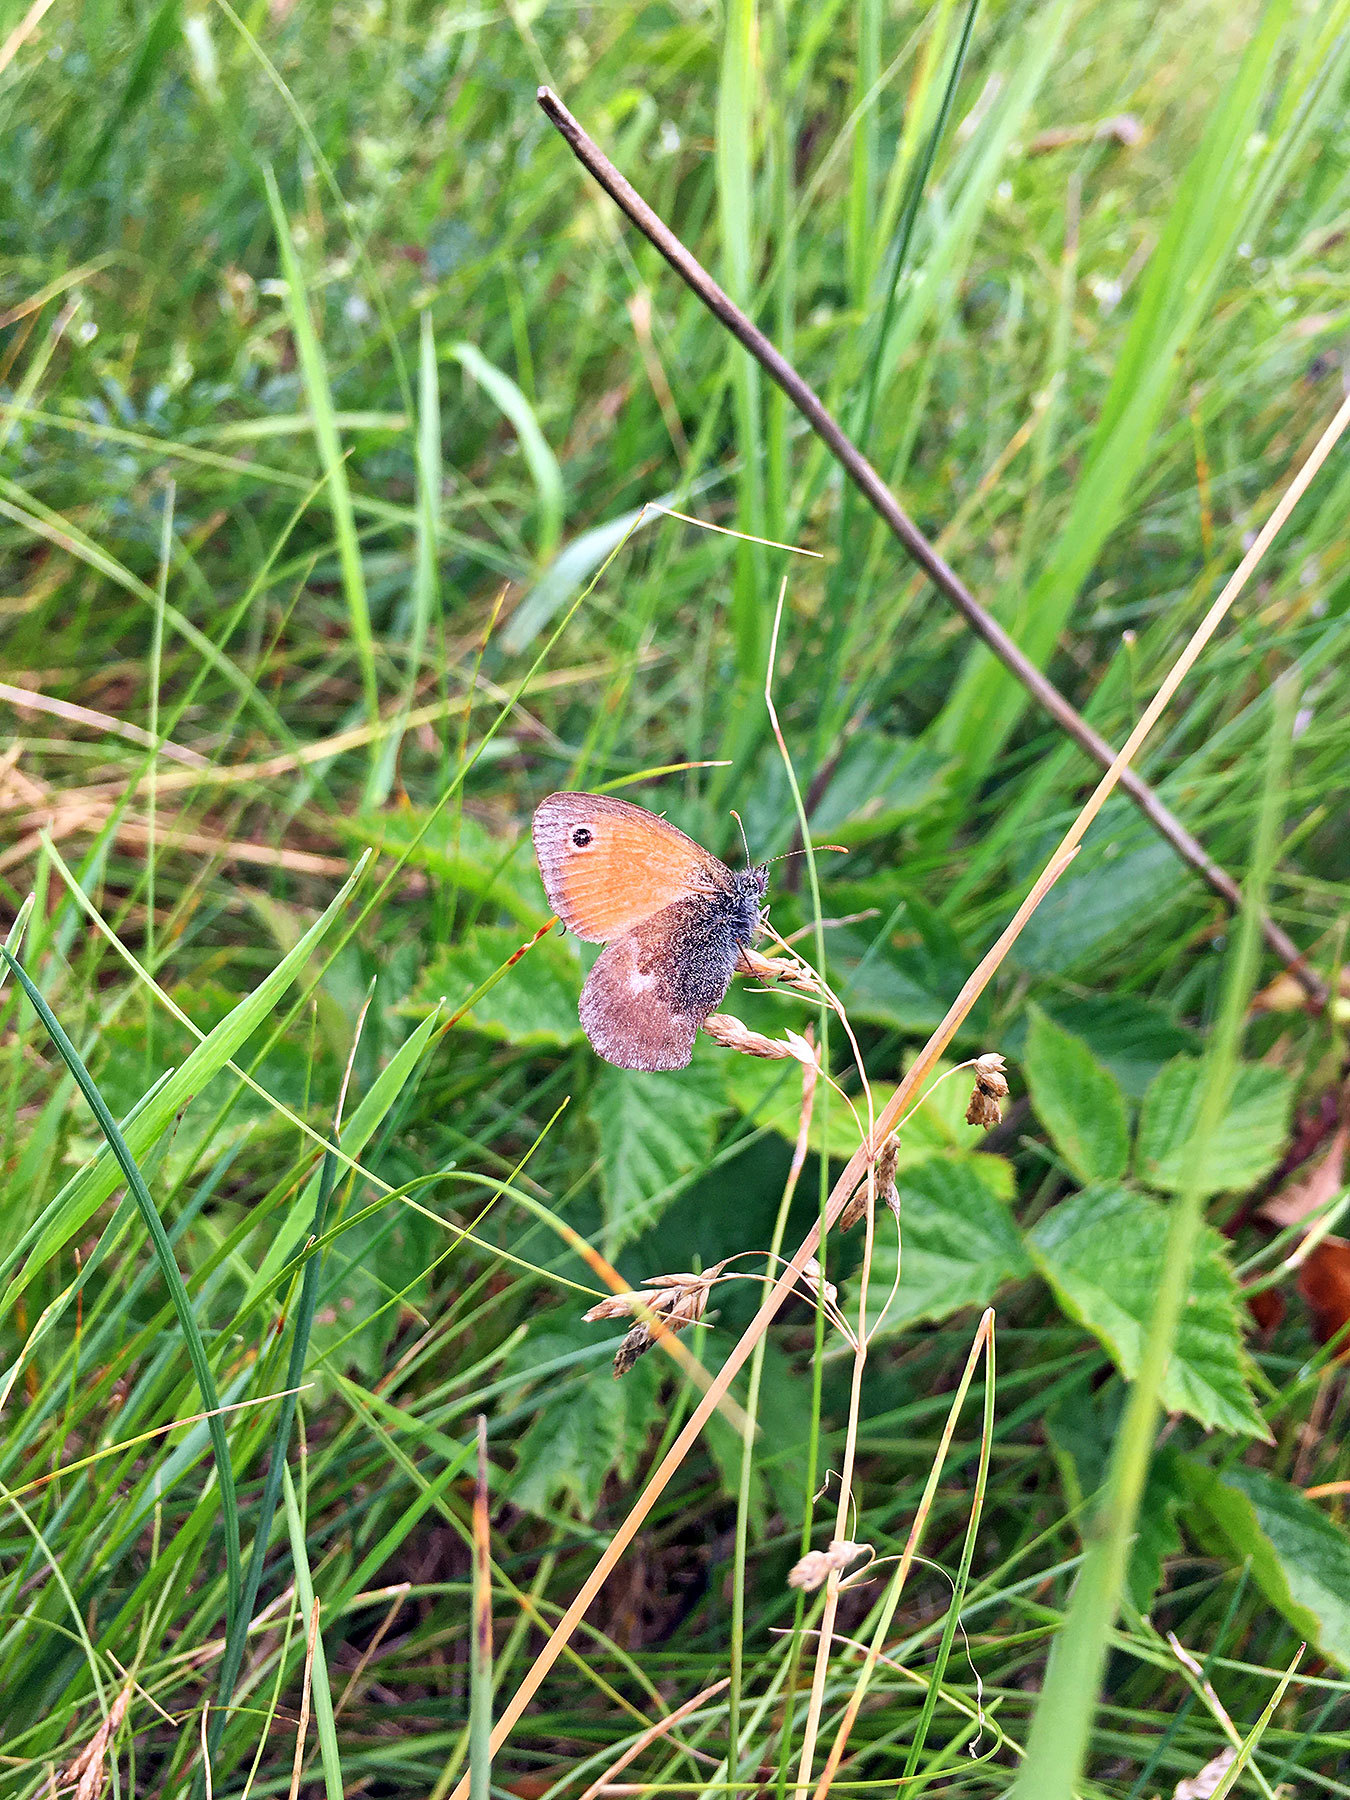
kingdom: Animalia
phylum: Arthropoda
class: Insecta
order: Lepidoptera
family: Nymphalidae
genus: Coenonympha
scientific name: Coenonympha pamphilus
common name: Small heath
